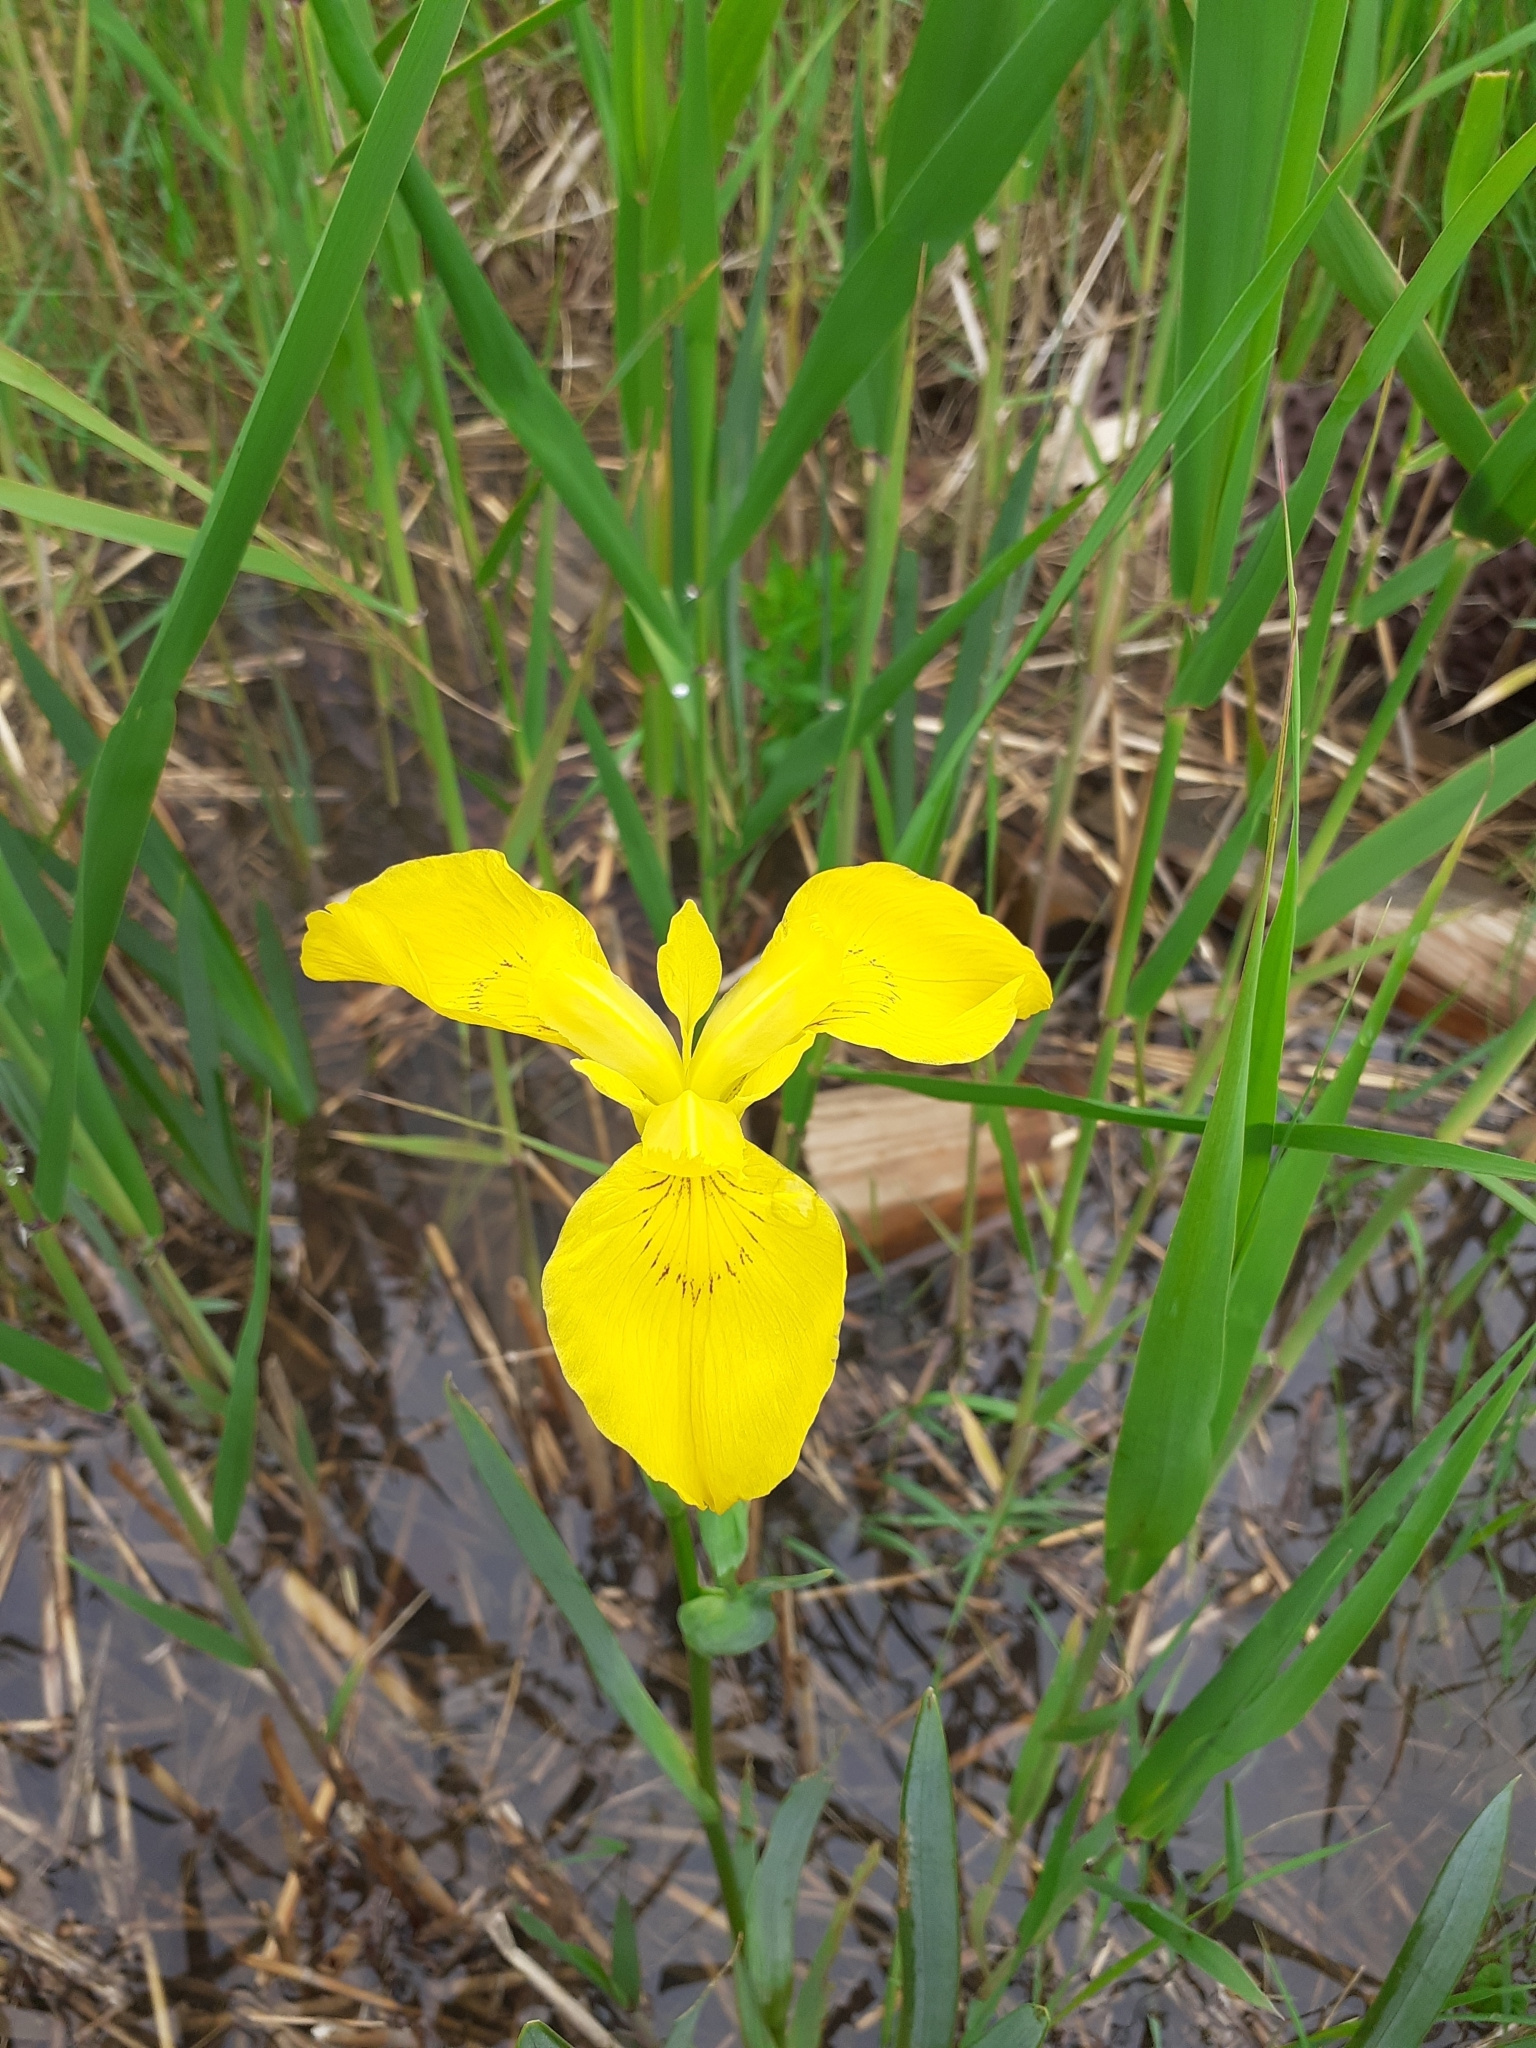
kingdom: Plantae
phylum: Tracheophyta
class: Liliopsida
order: Asparagales
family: Iridaceae
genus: Iris
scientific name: Iris pseudacorus
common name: Yellow flag
